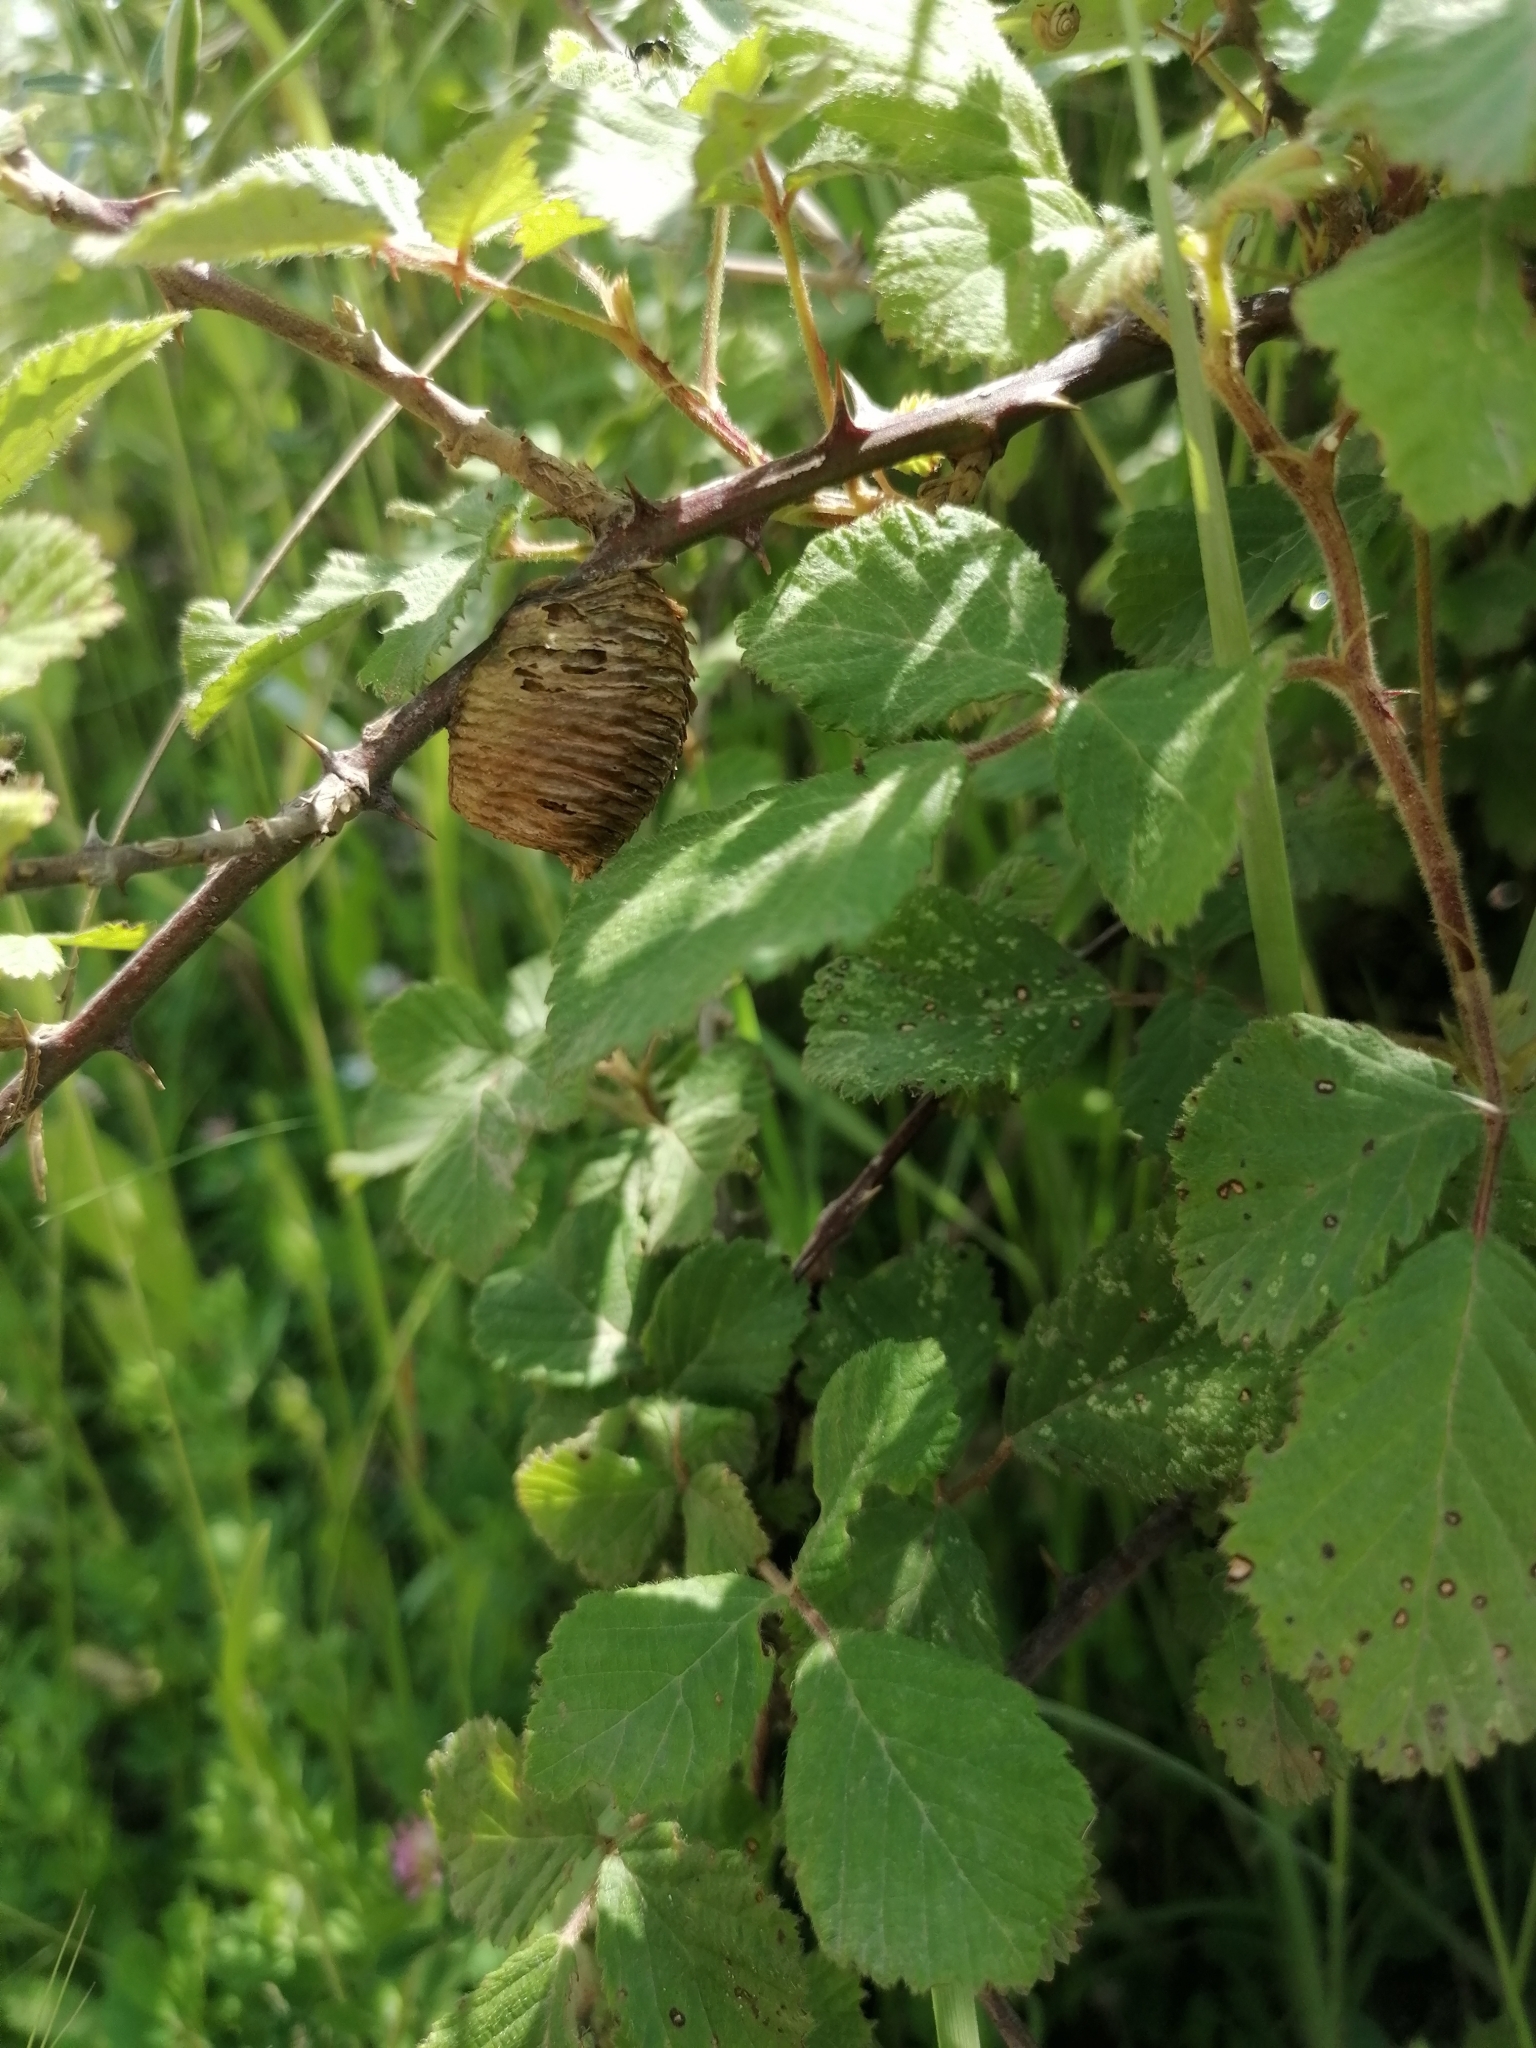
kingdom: Animalia
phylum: Arthropoda
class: Insecta
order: Mantodea
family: Mantidae
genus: Hierodula
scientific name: Hierodula transcaucasica
